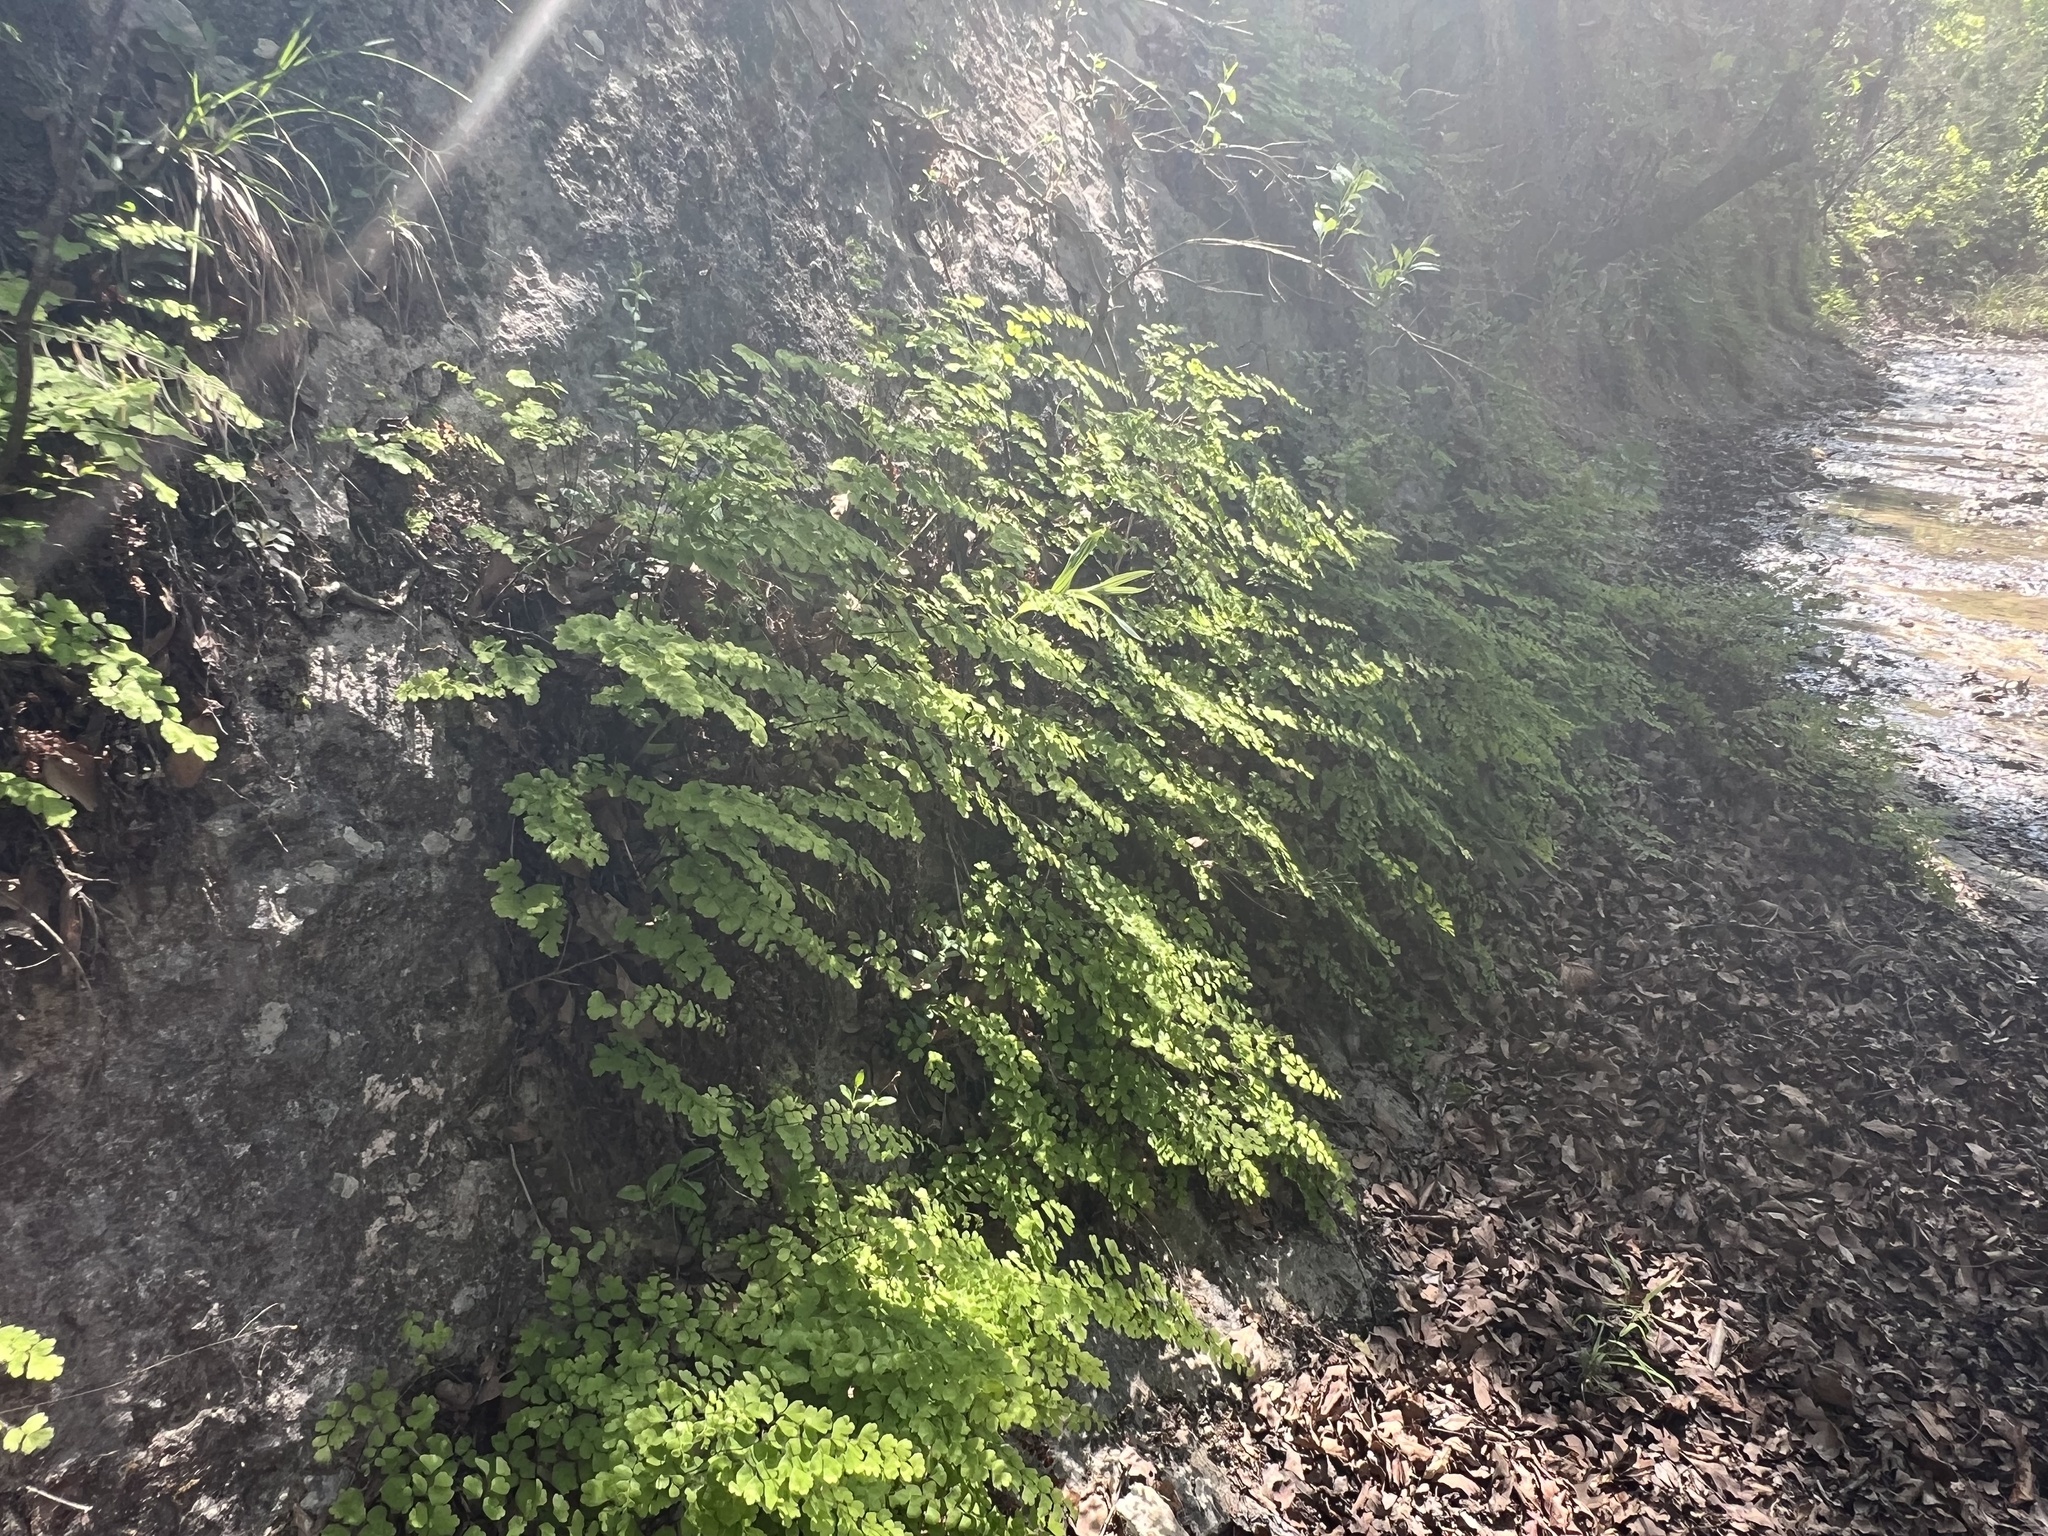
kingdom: Plantae
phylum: Tracheophyta
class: Polypodiopsida
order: Polypodiales
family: Pteridaceae
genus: Adiantum
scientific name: Adiantum capillus-veneris
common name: Maidenhair fern
